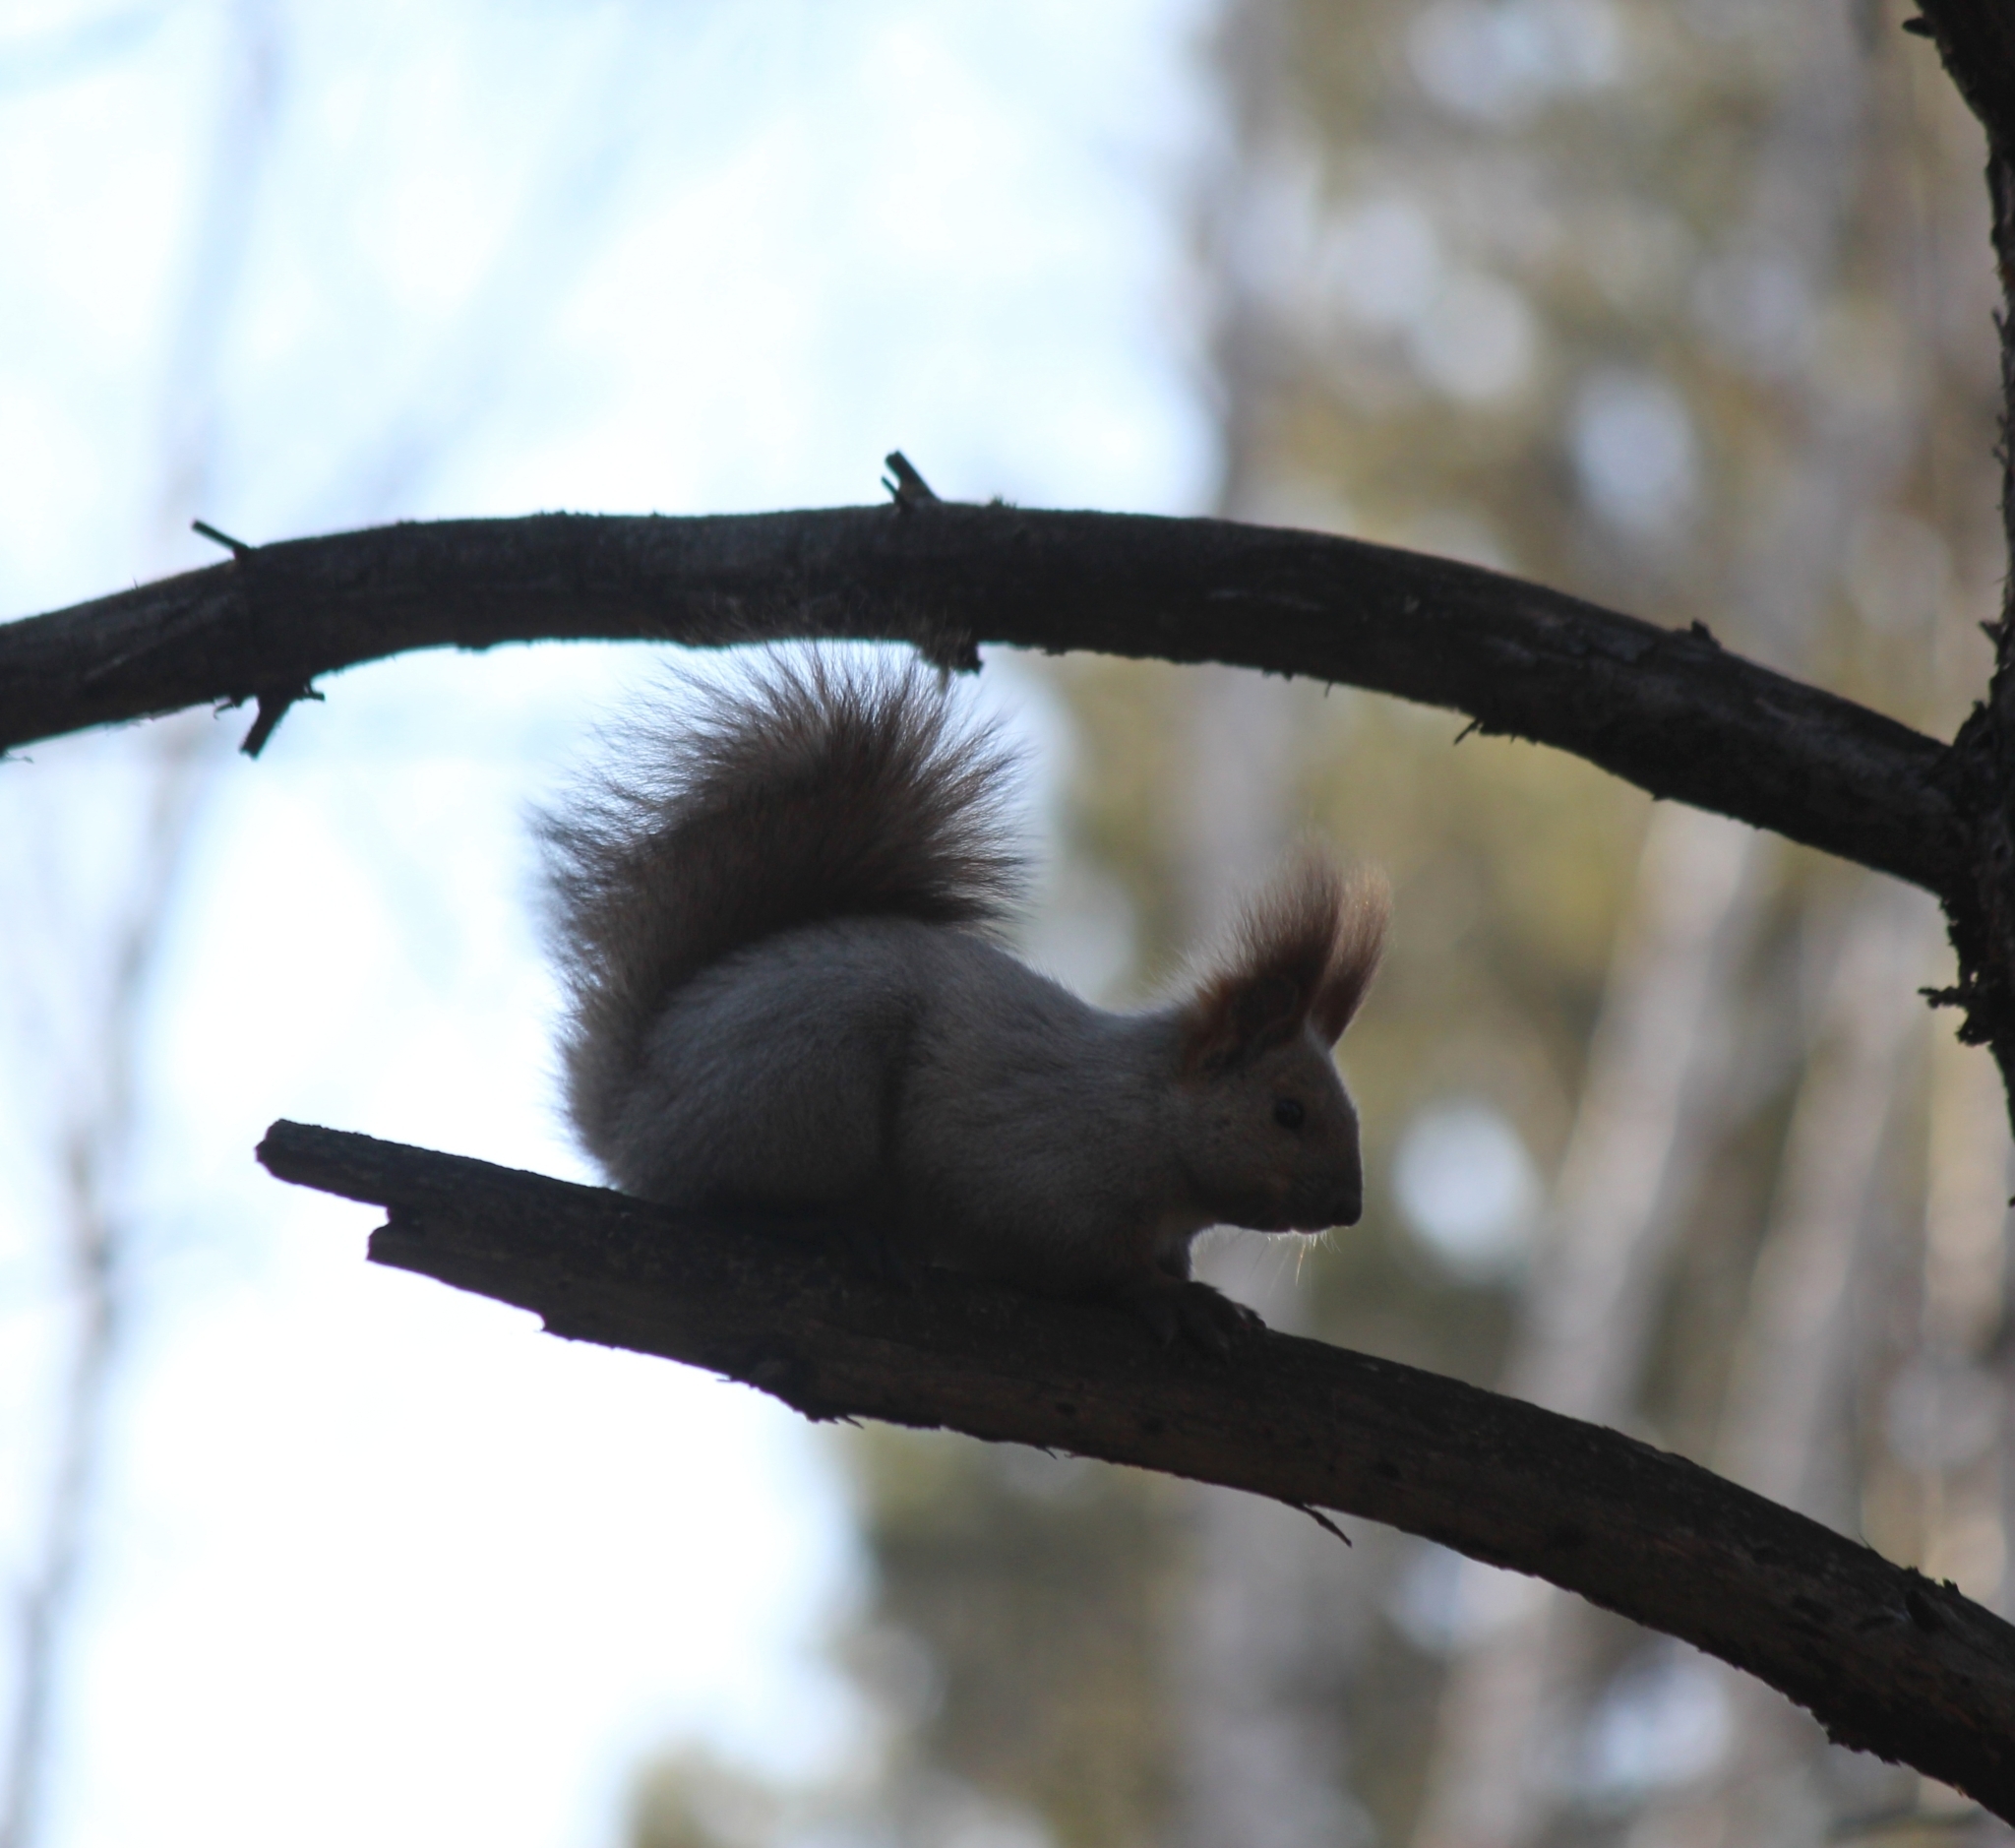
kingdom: Animalia
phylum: Chordata
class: Mammalia
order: Rodentia
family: Sciuridae
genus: Sciurus
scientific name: Sciurus vulgaris
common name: Eurasian red squirrel
